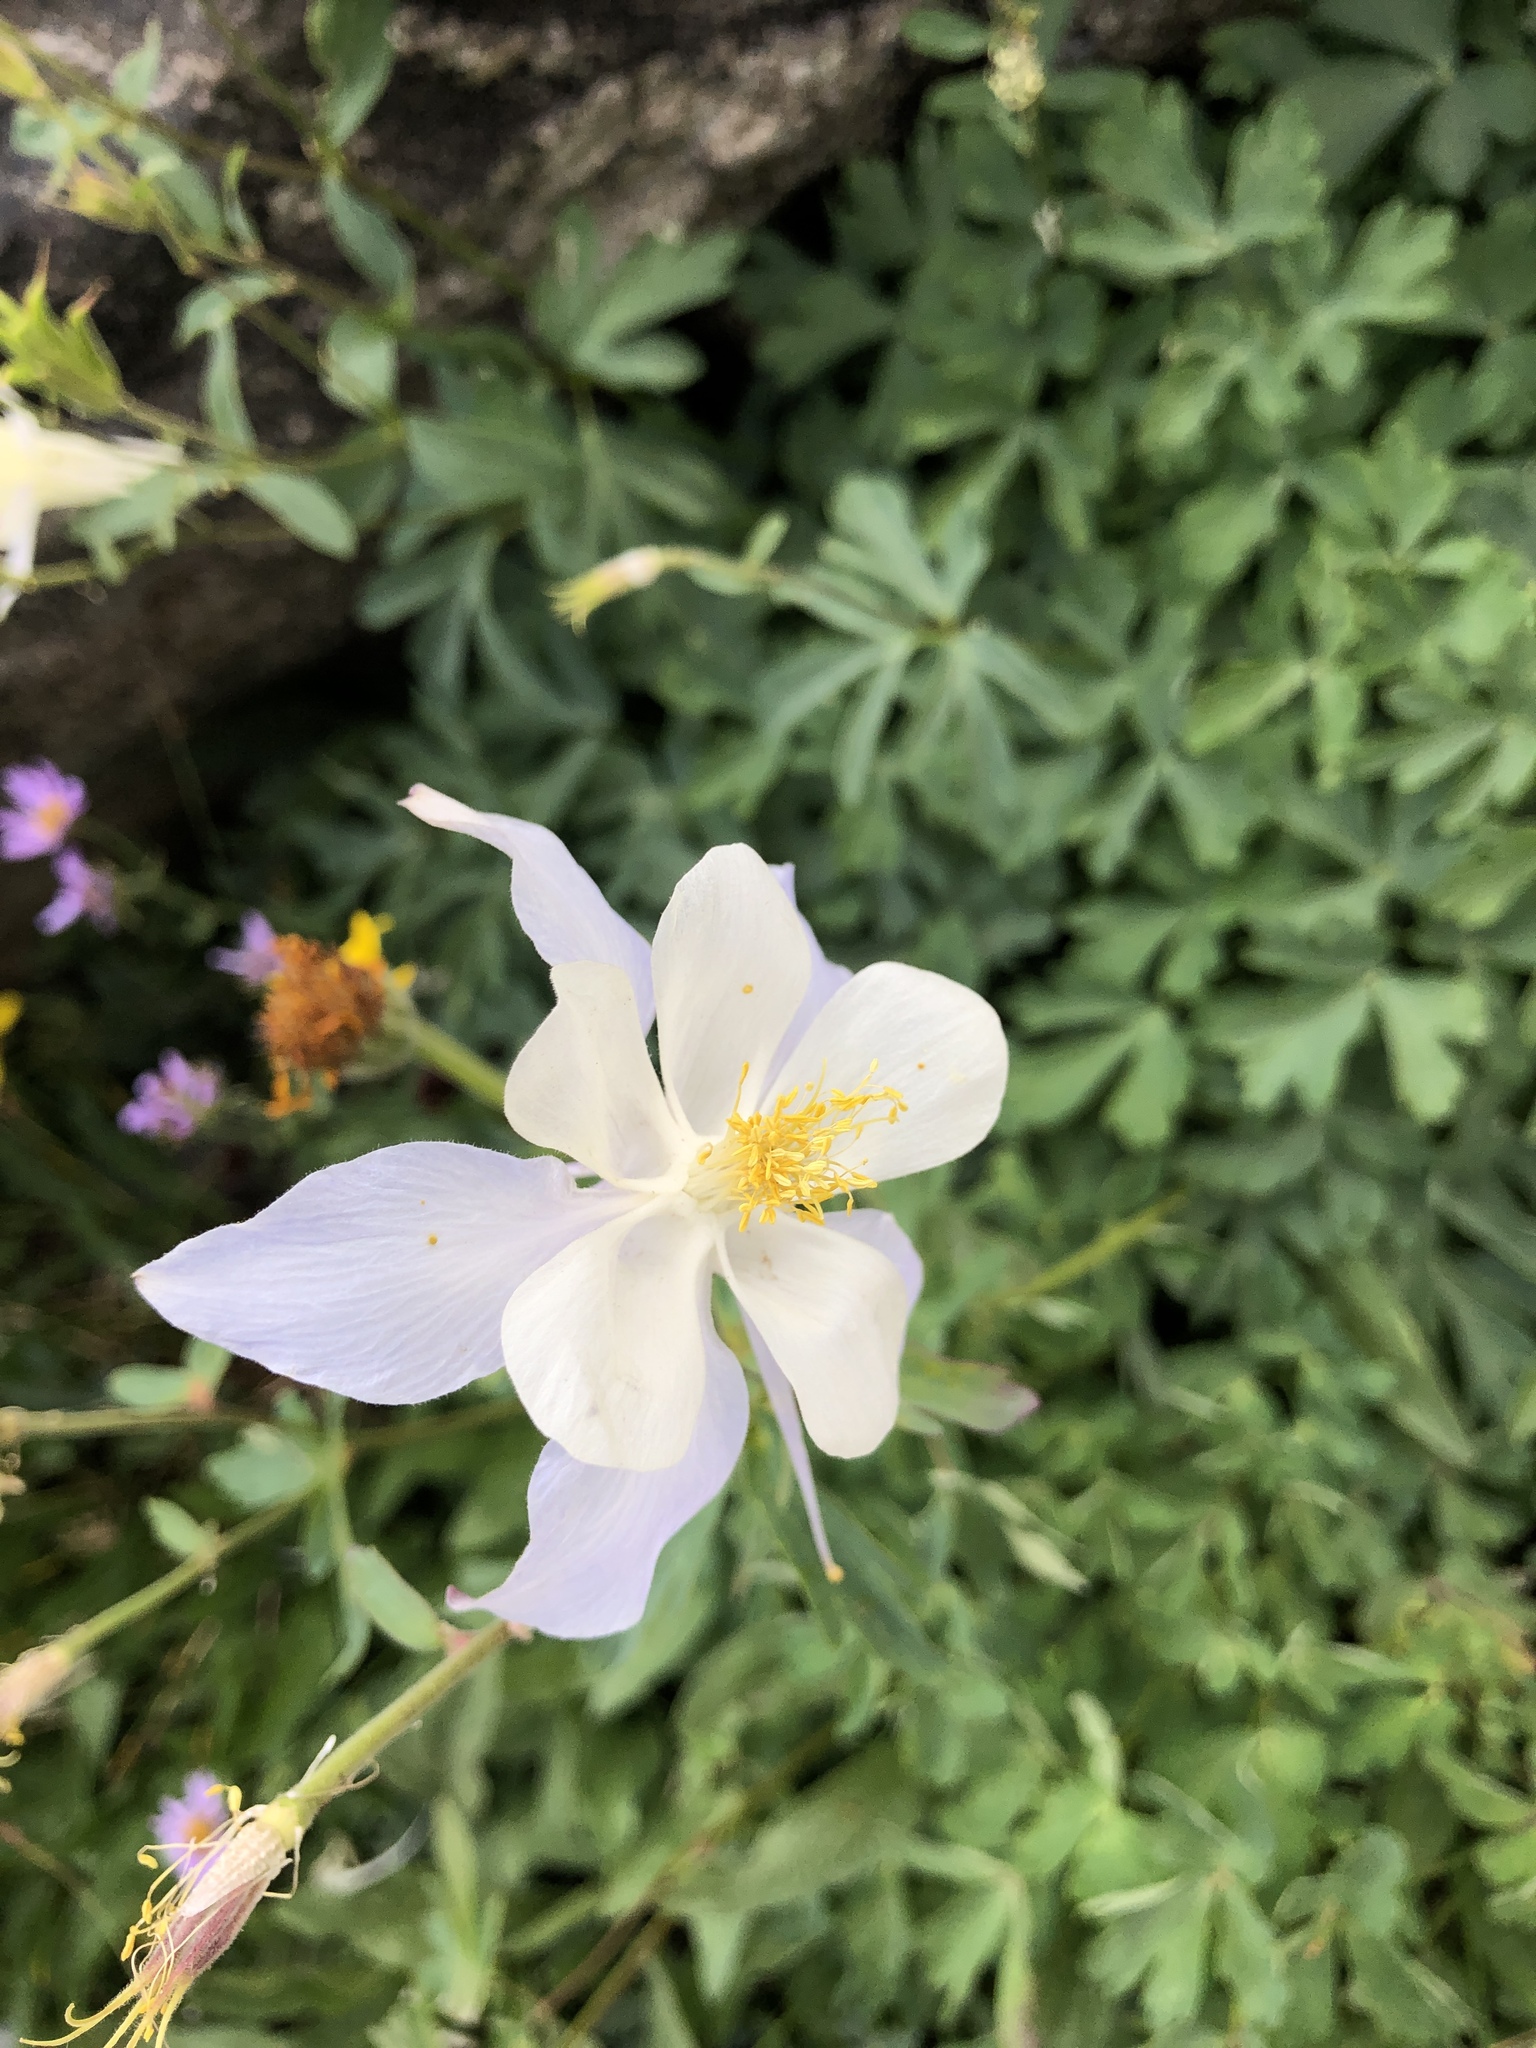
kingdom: Plantae
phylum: Tracheophyta
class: Magnoliopsida
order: Ranunculales
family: Ranunculaceae
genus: Aquilegia
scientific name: Aquilegia coerulea
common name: Rocky mountain columbine
